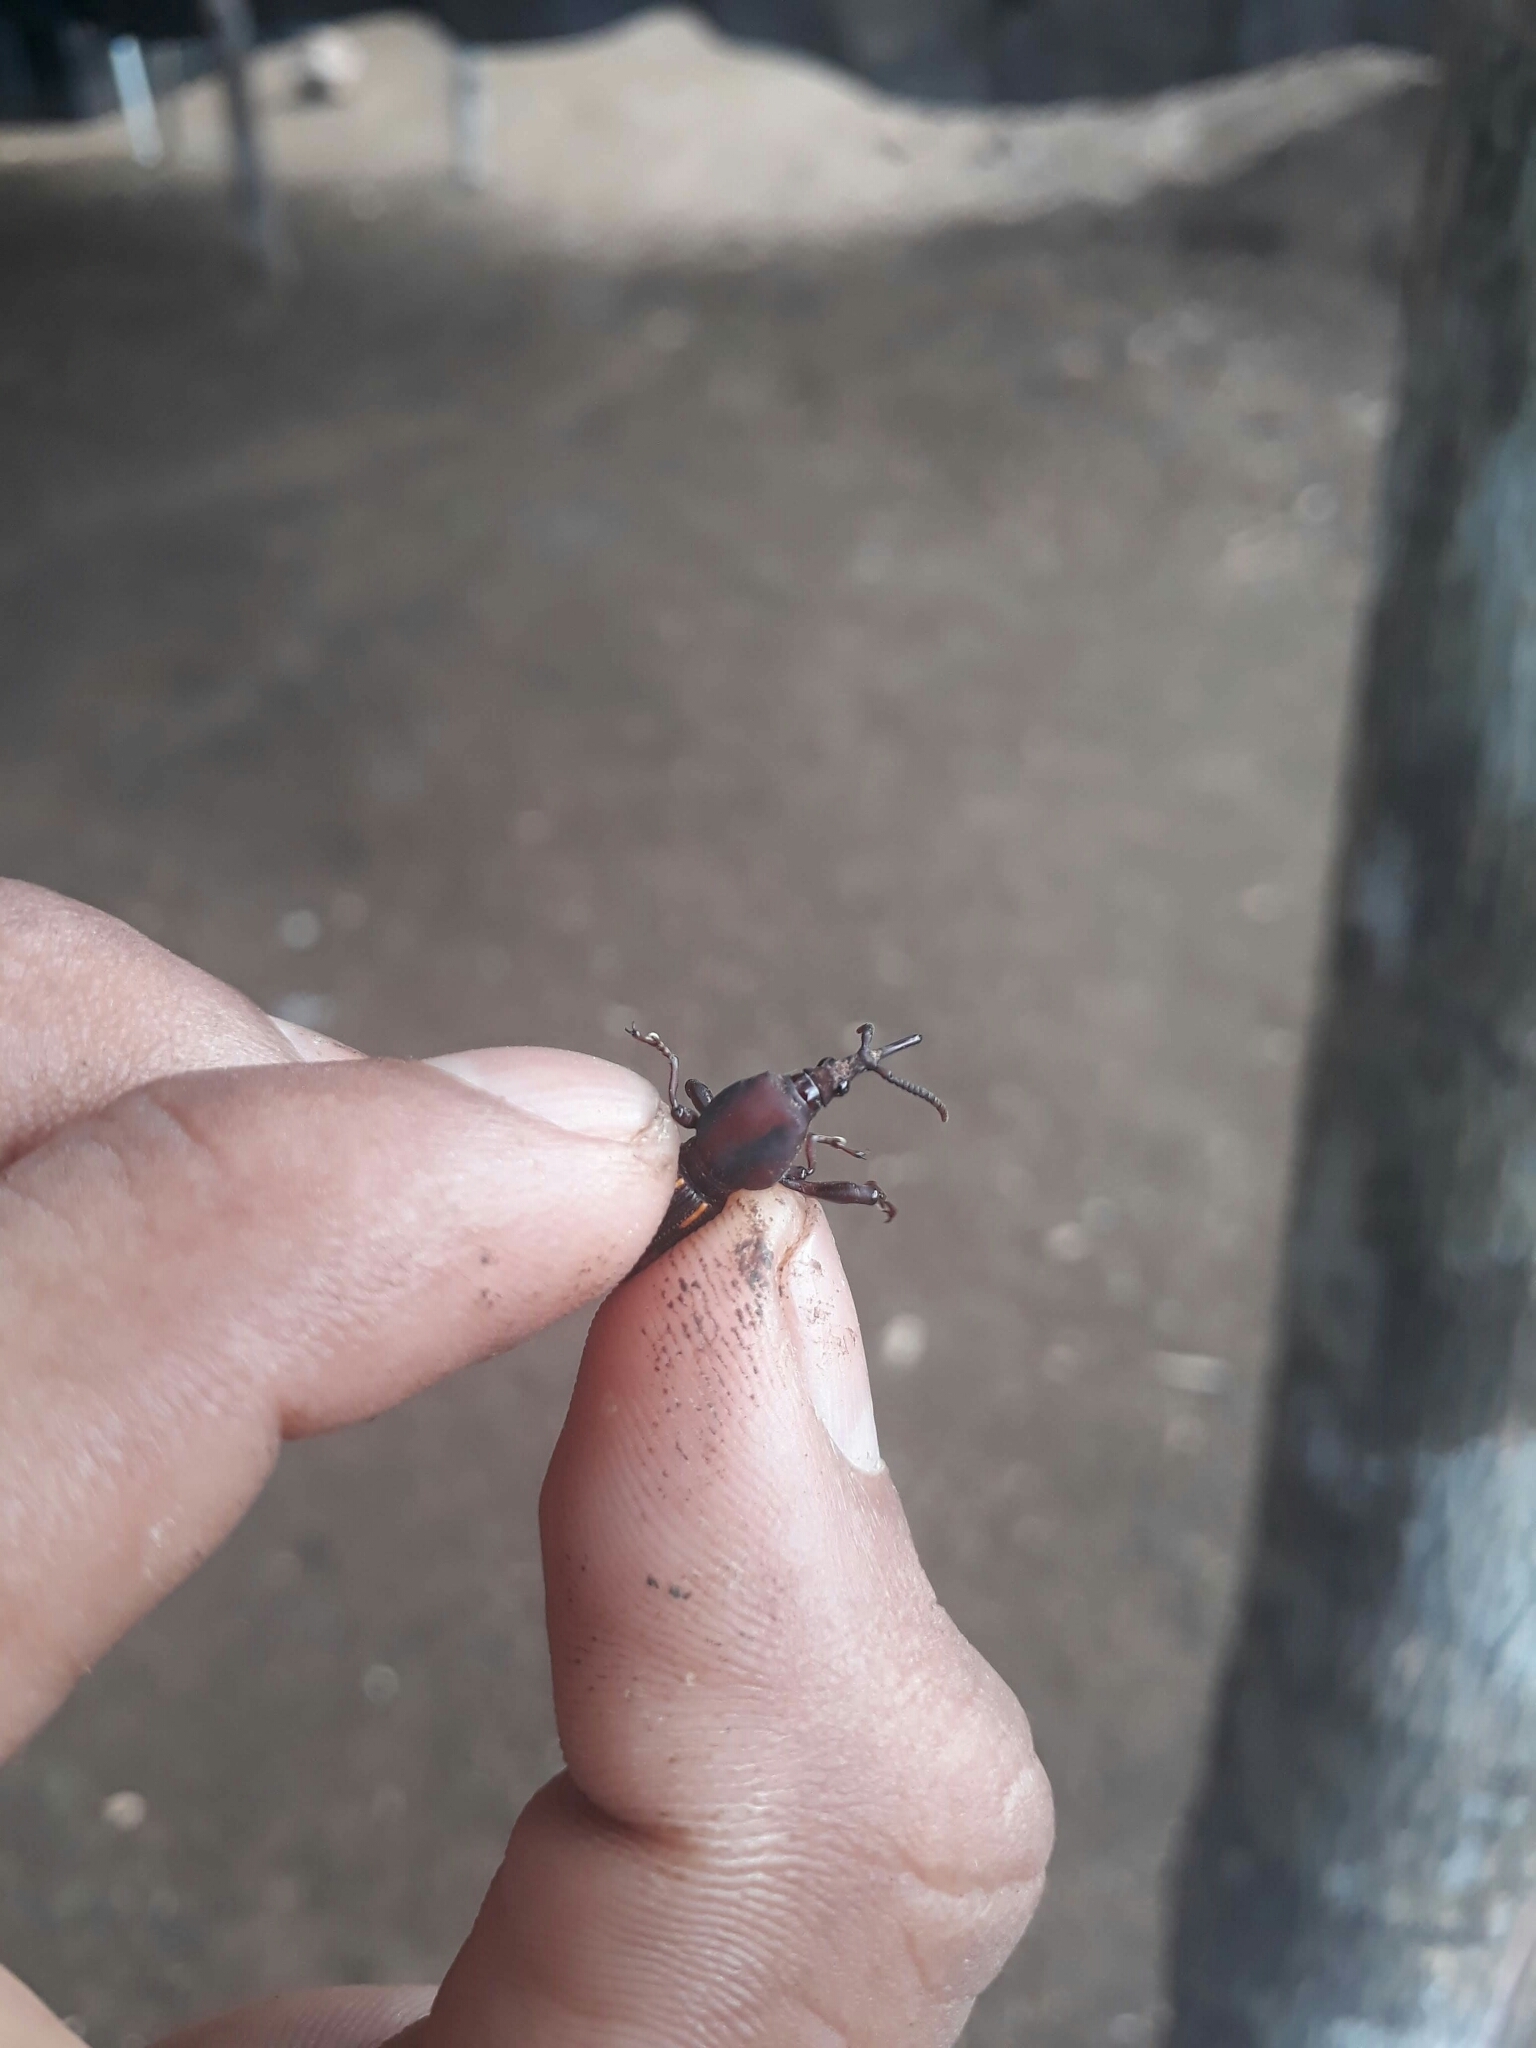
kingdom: Animalia
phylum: Arthropoda
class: Insecta
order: Coleoptera
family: Brentidae
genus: Estenorhinus
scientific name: Estenorhinus concolor
